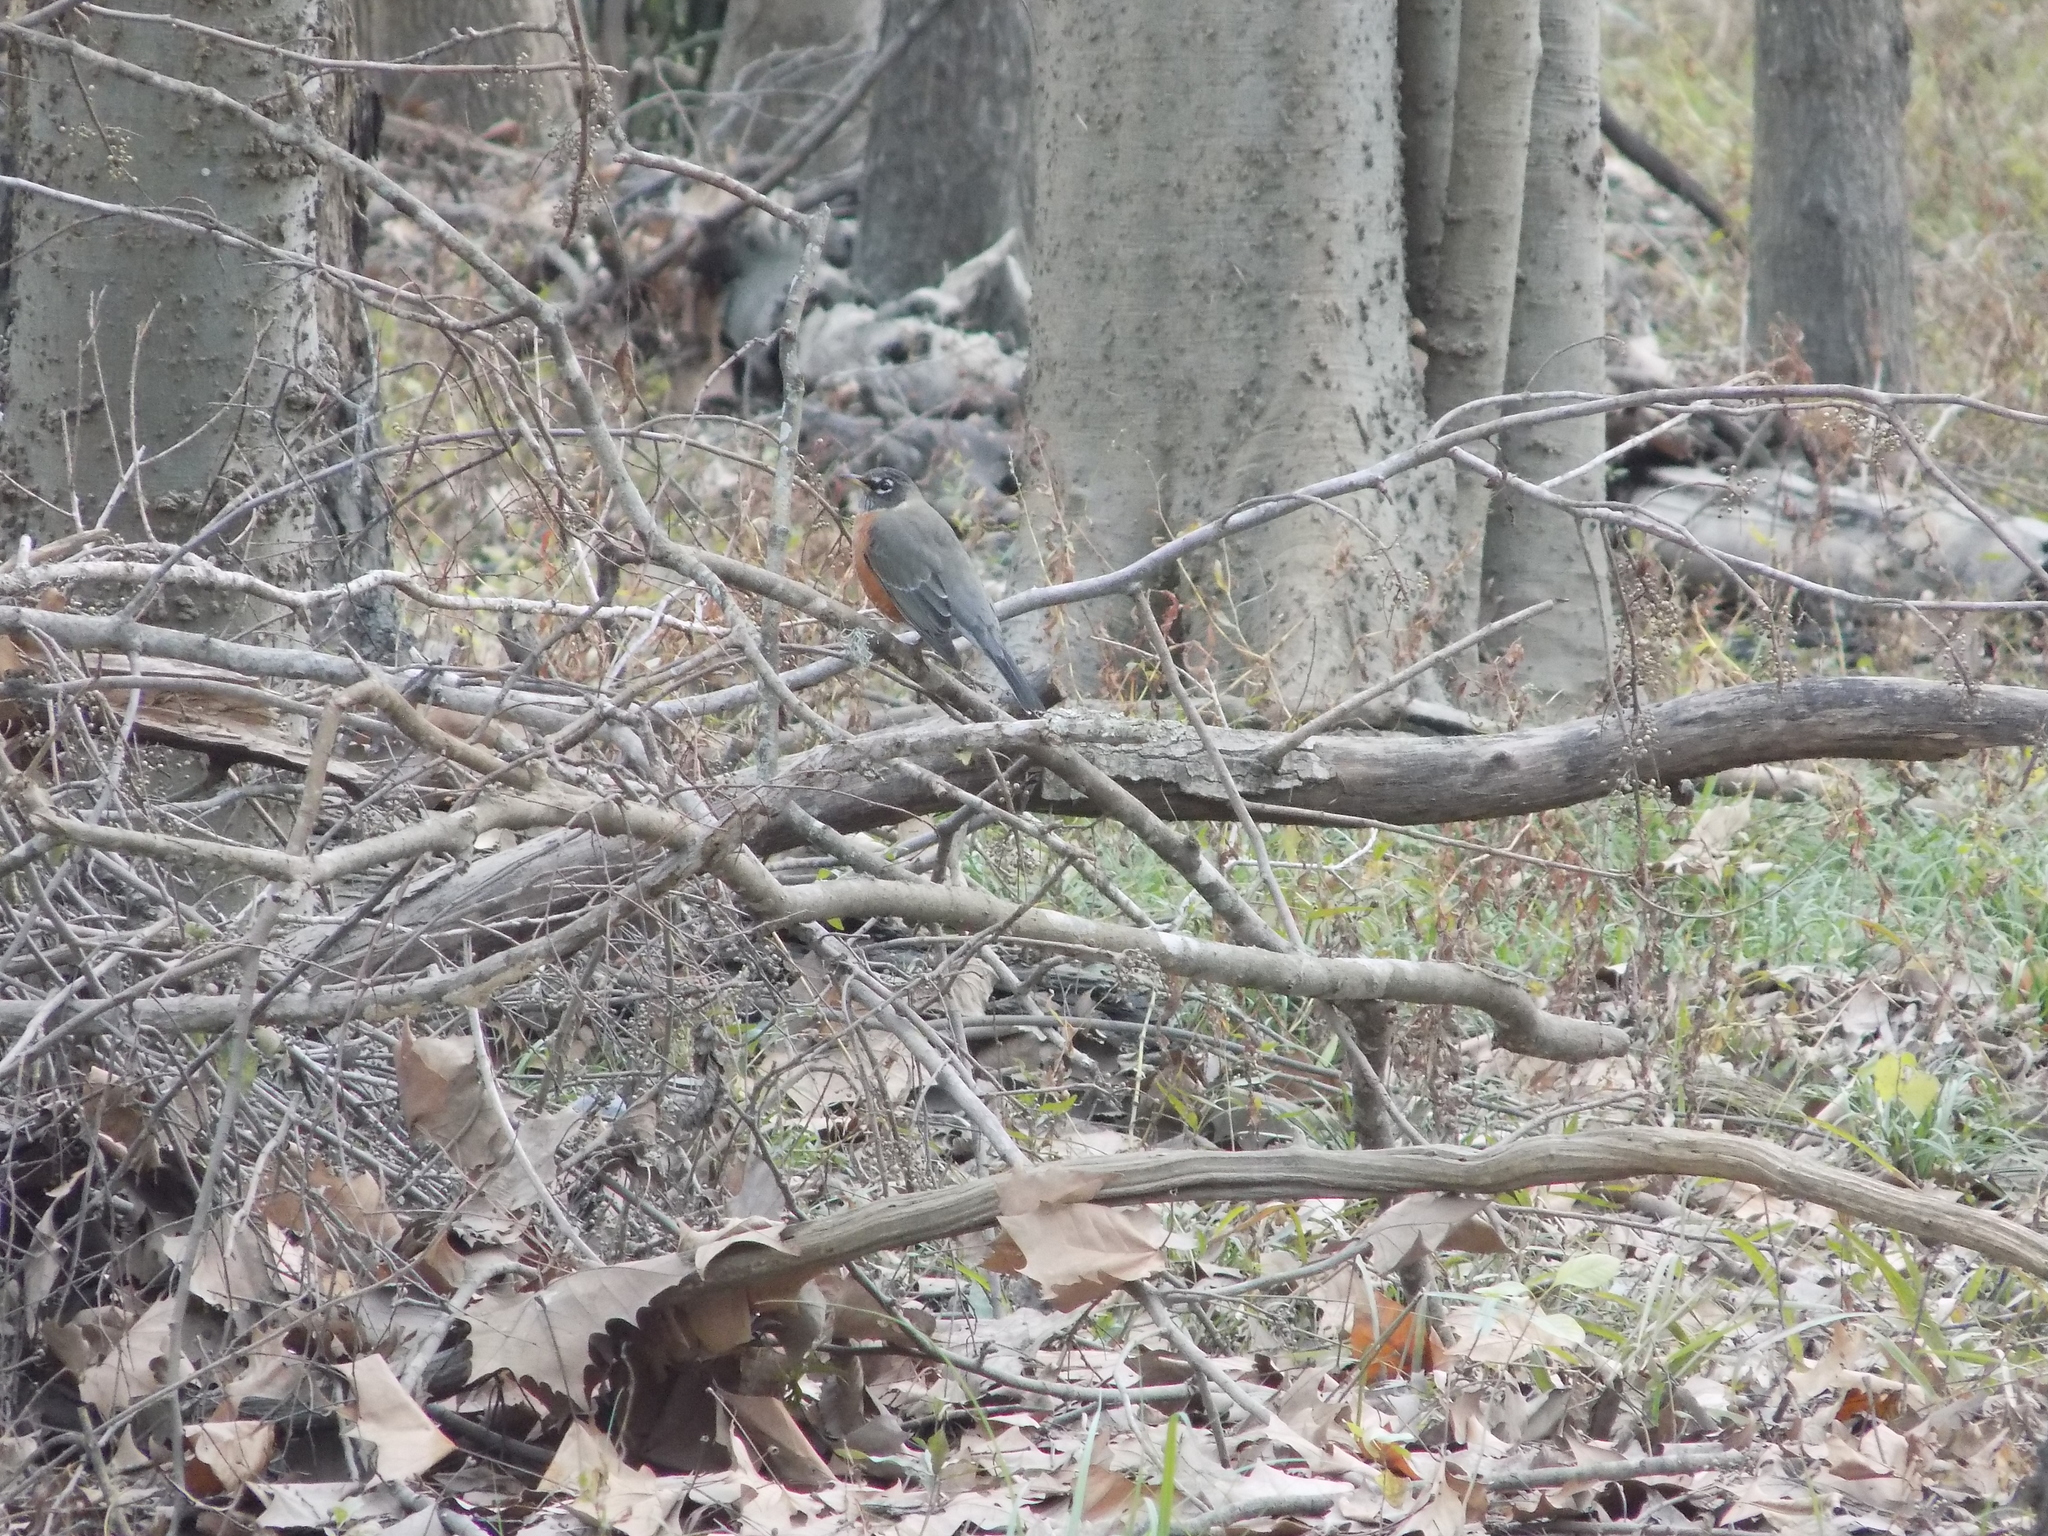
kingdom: Animalia
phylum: Chordata
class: Aves
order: Passeriformes
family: Turdidae
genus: Turdus
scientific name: Turdus migratorius
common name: American robin
